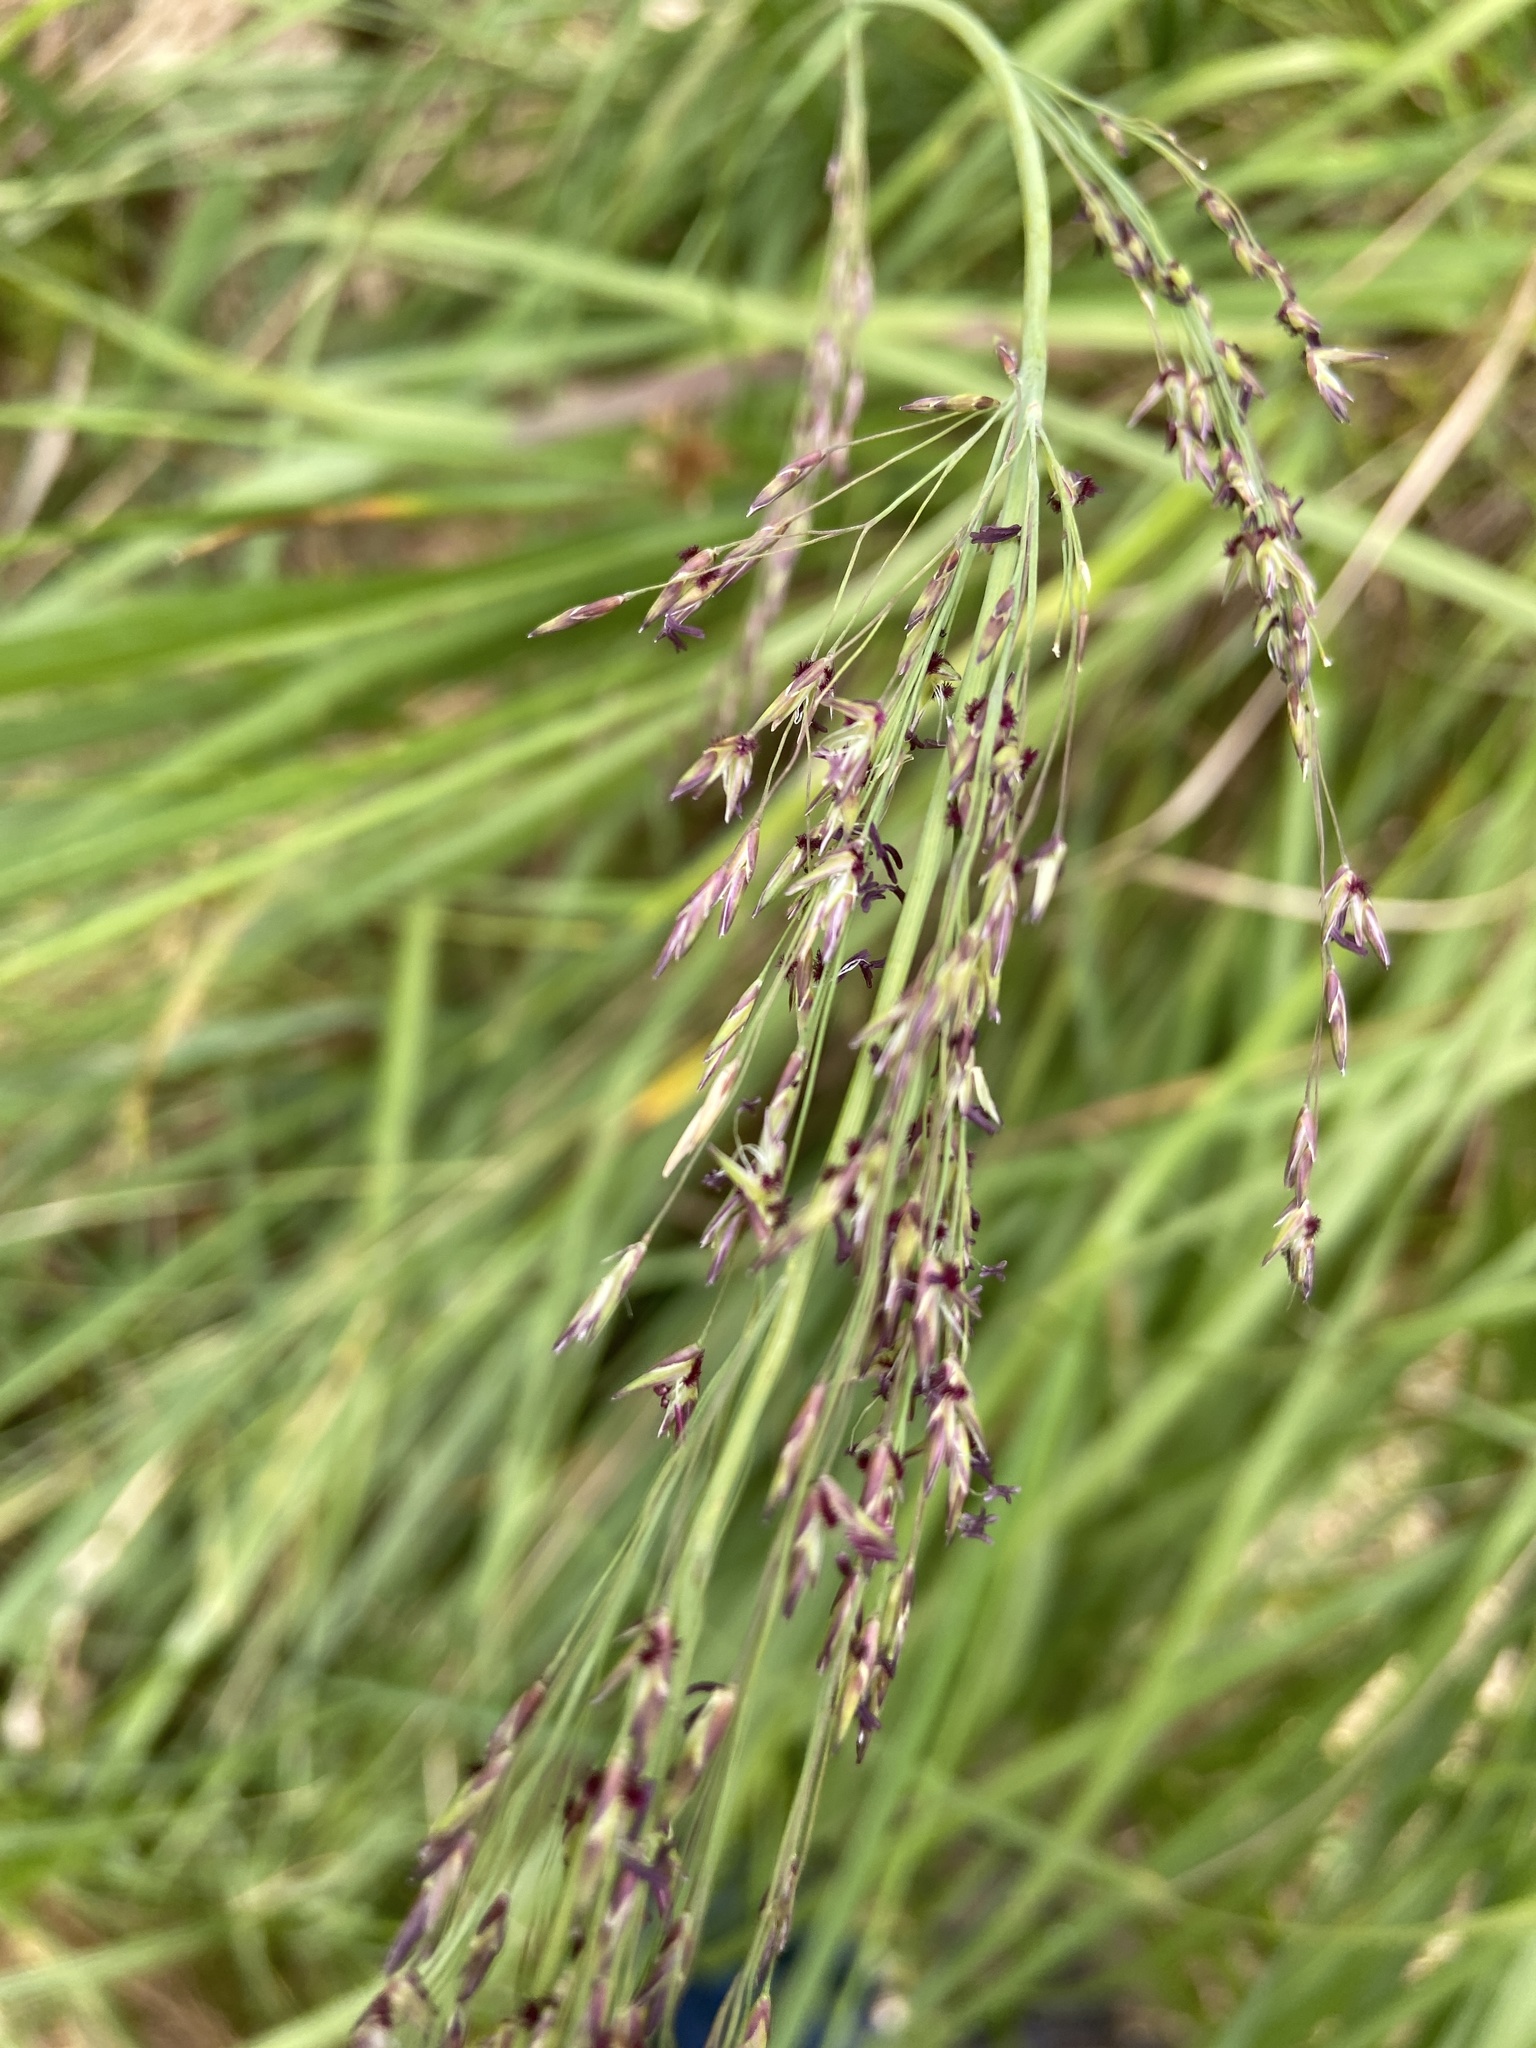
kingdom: Plantae
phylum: Tracheophyta
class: Liliopsida
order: Poales
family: Poaceae
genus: Molinia
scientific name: Molinia caerulea
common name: Purple moor-grass
